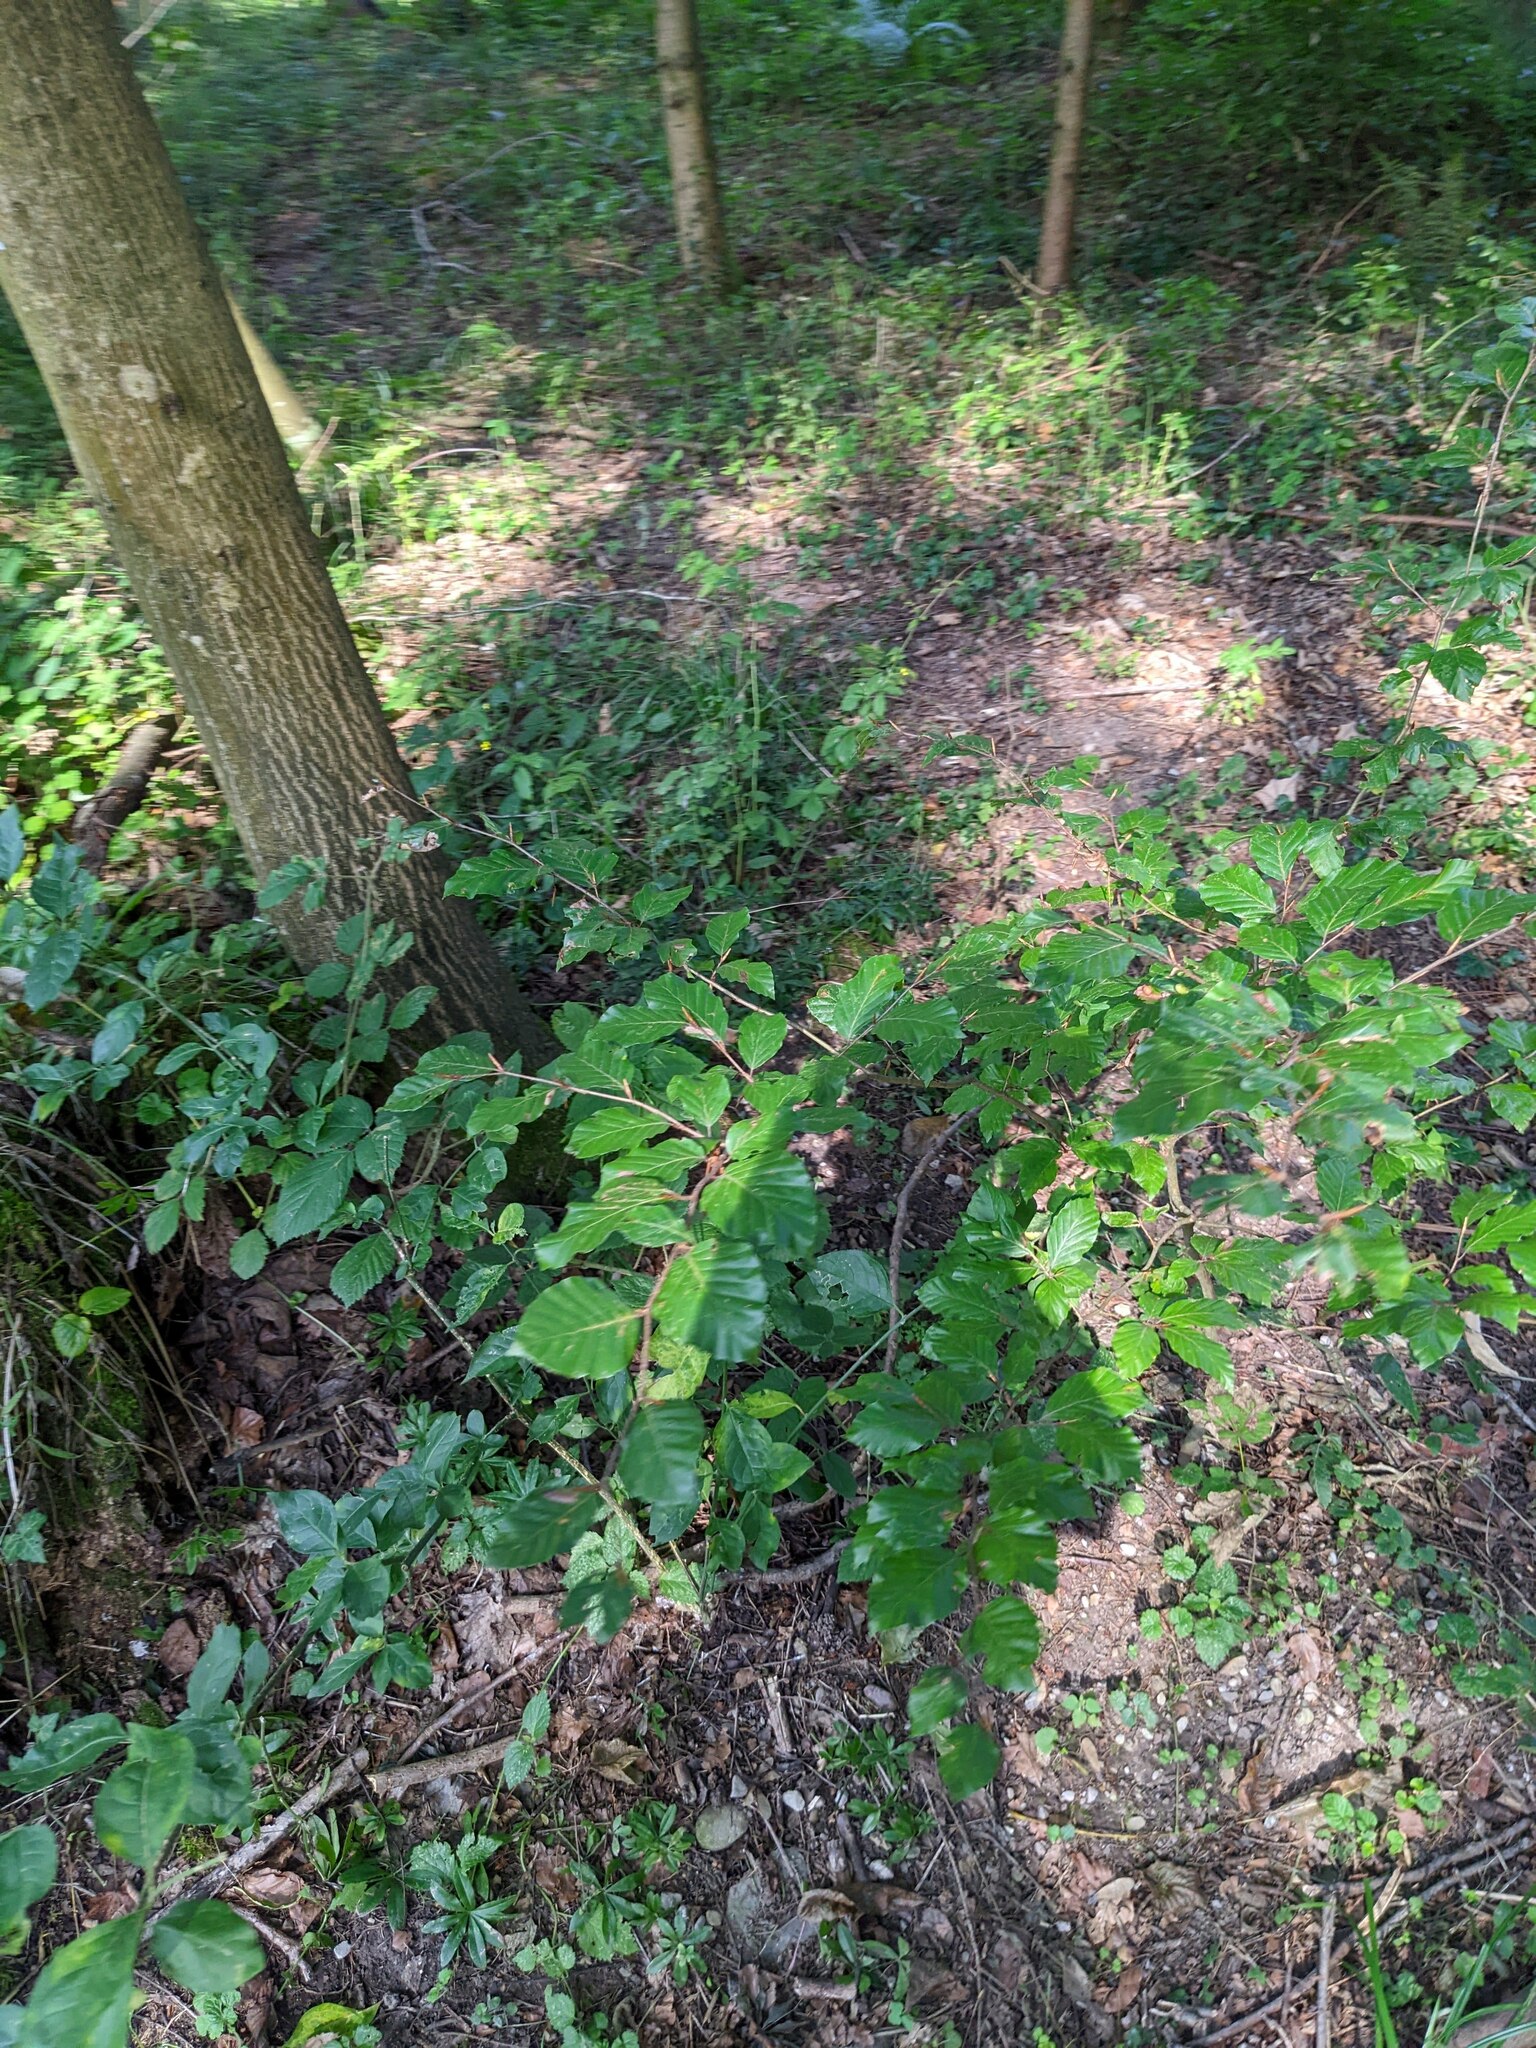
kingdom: Plantae
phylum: Tracheophyta
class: Magnoliopsida
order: Fagales
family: Fagaceae
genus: Fagus
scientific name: Fagus sylvatica
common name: Beech
